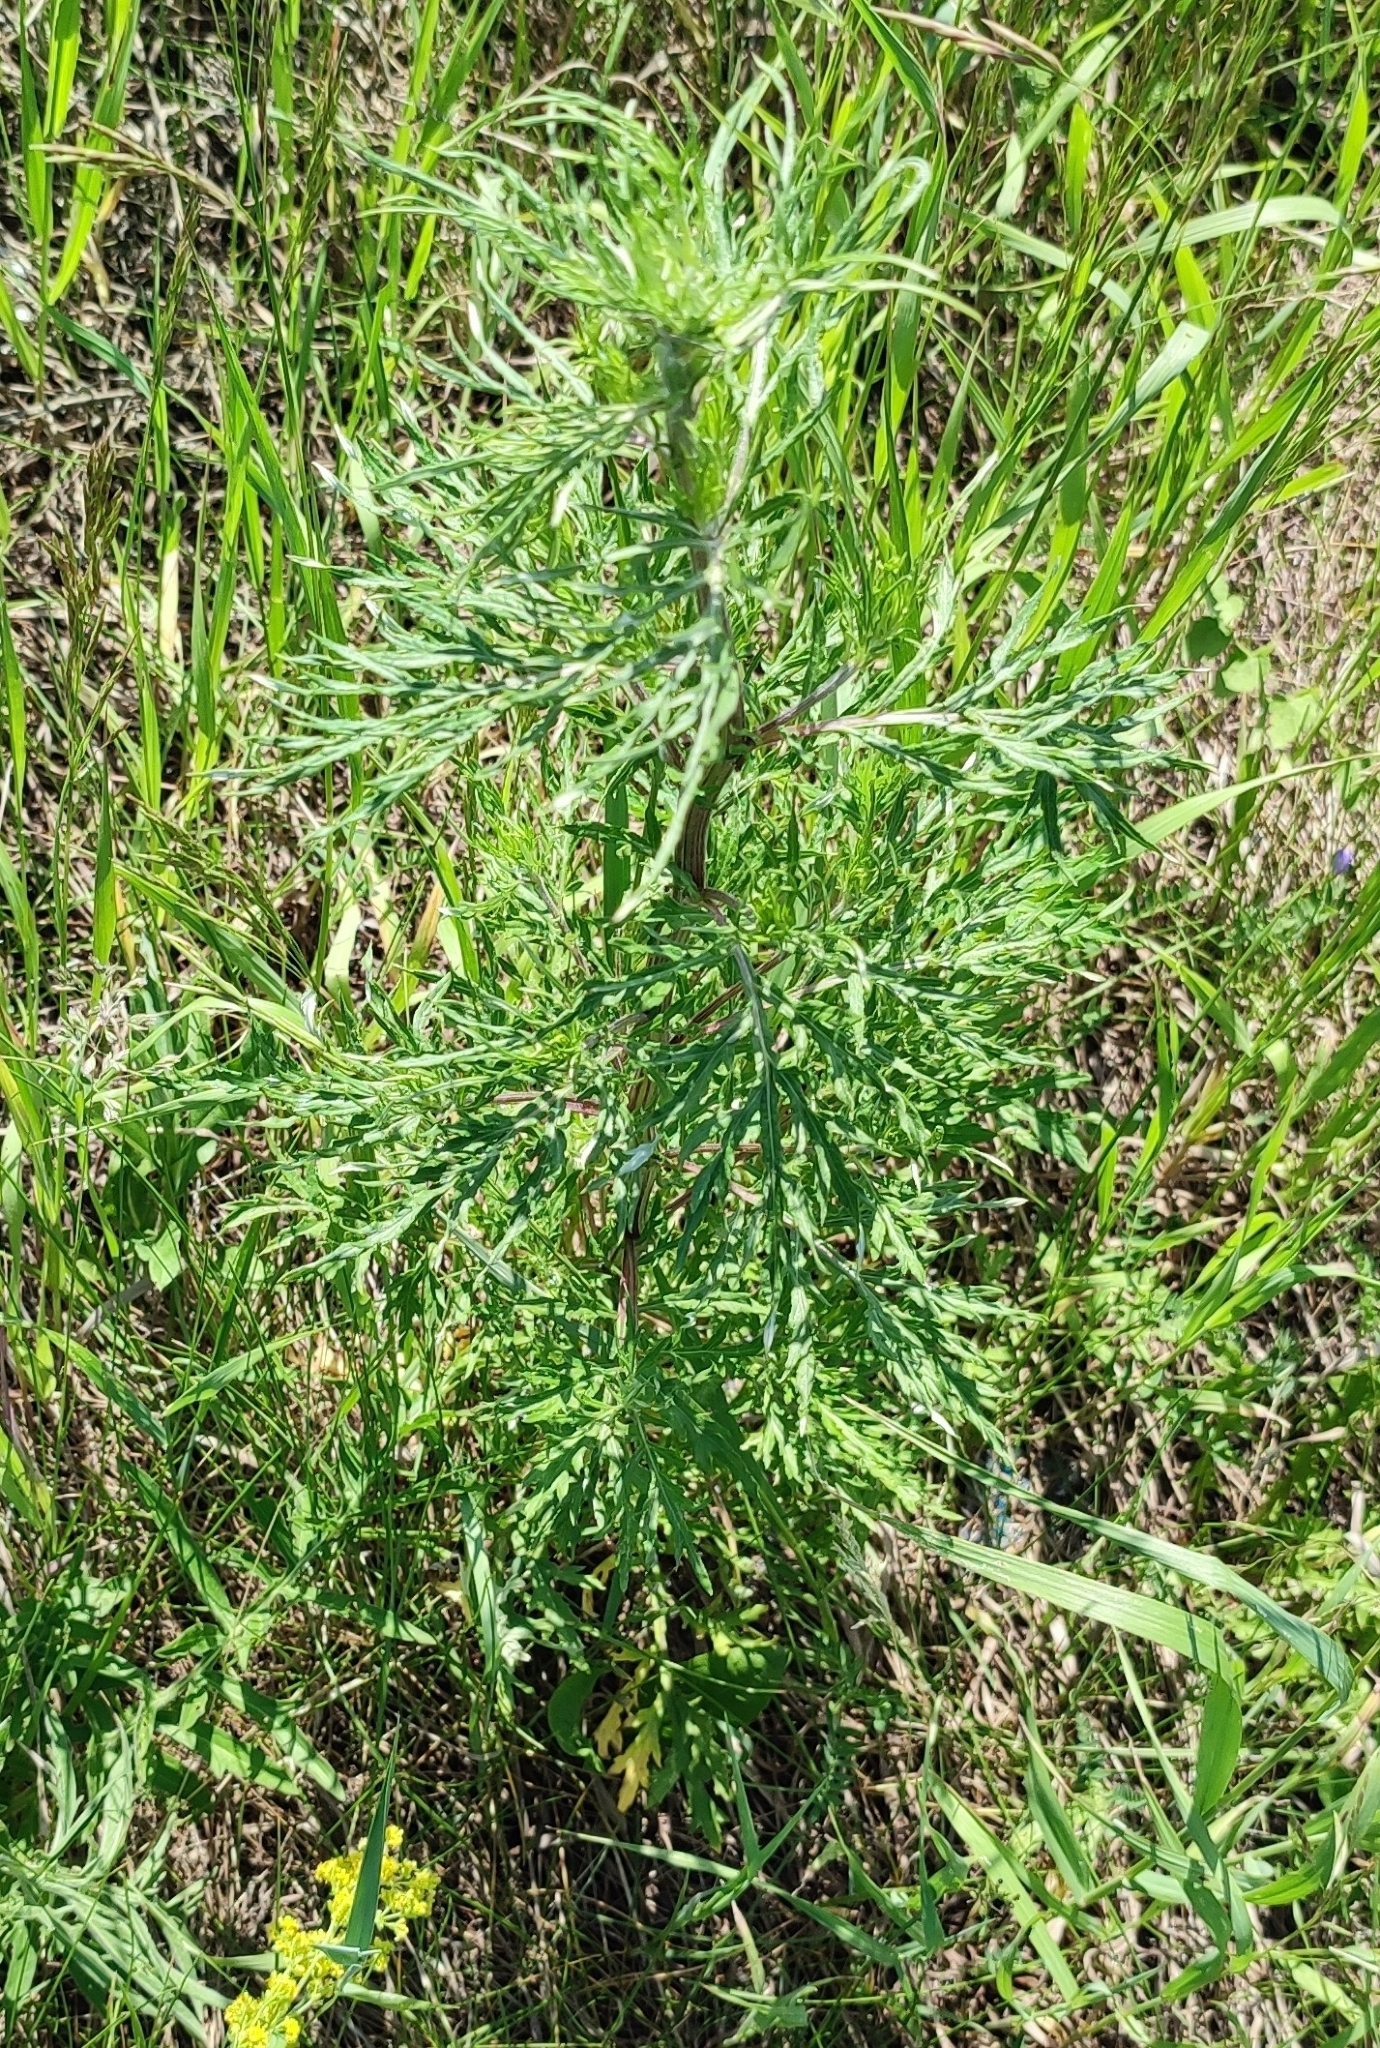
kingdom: Plantae
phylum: Tracheophyta
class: Magnoliopsida
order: Asterales
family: Asteraceae
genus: Artemisia
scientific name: Artemisia vulgaris
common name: Mugwort
